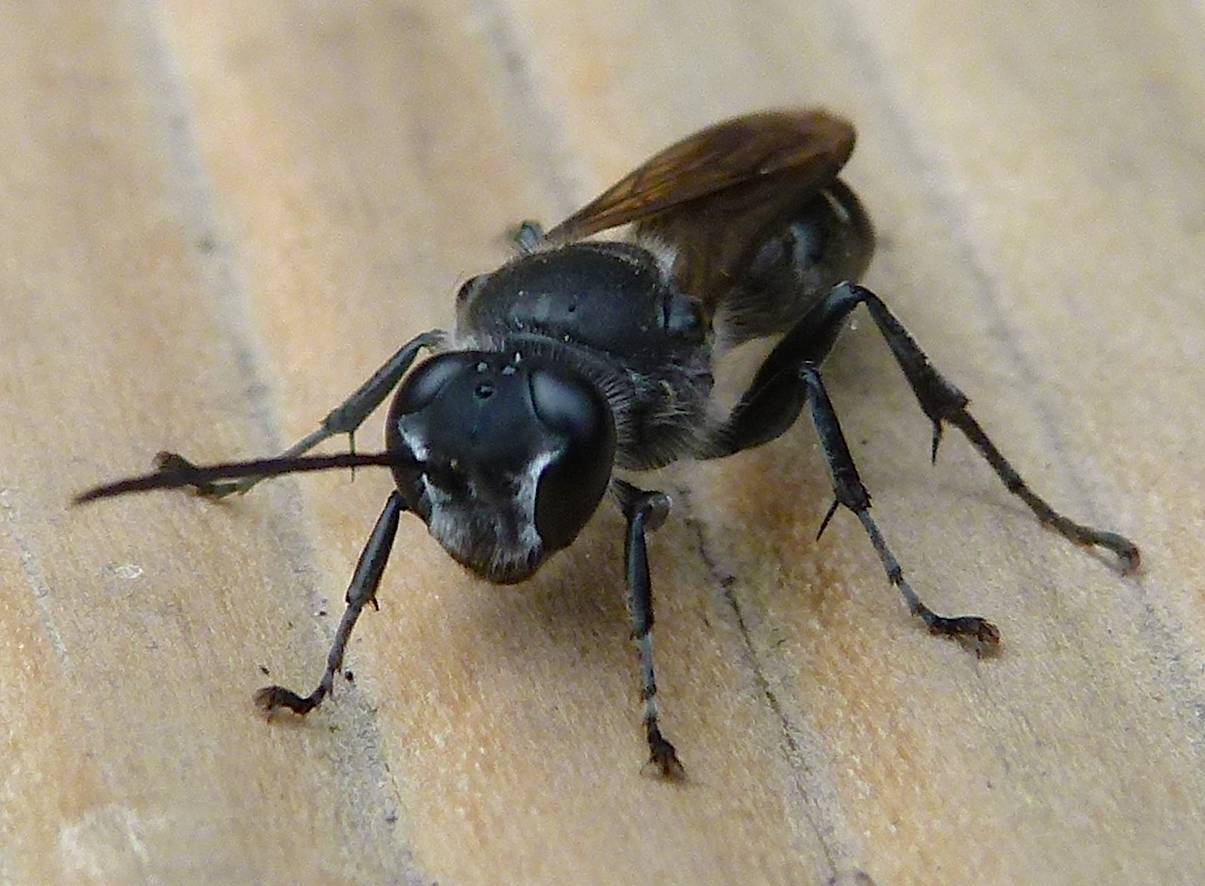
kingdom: Animalia
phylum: Arthropoda
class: Insecta
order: Hymenoptera
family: Crabronidae
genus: Pison
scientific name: Pison spinolae
